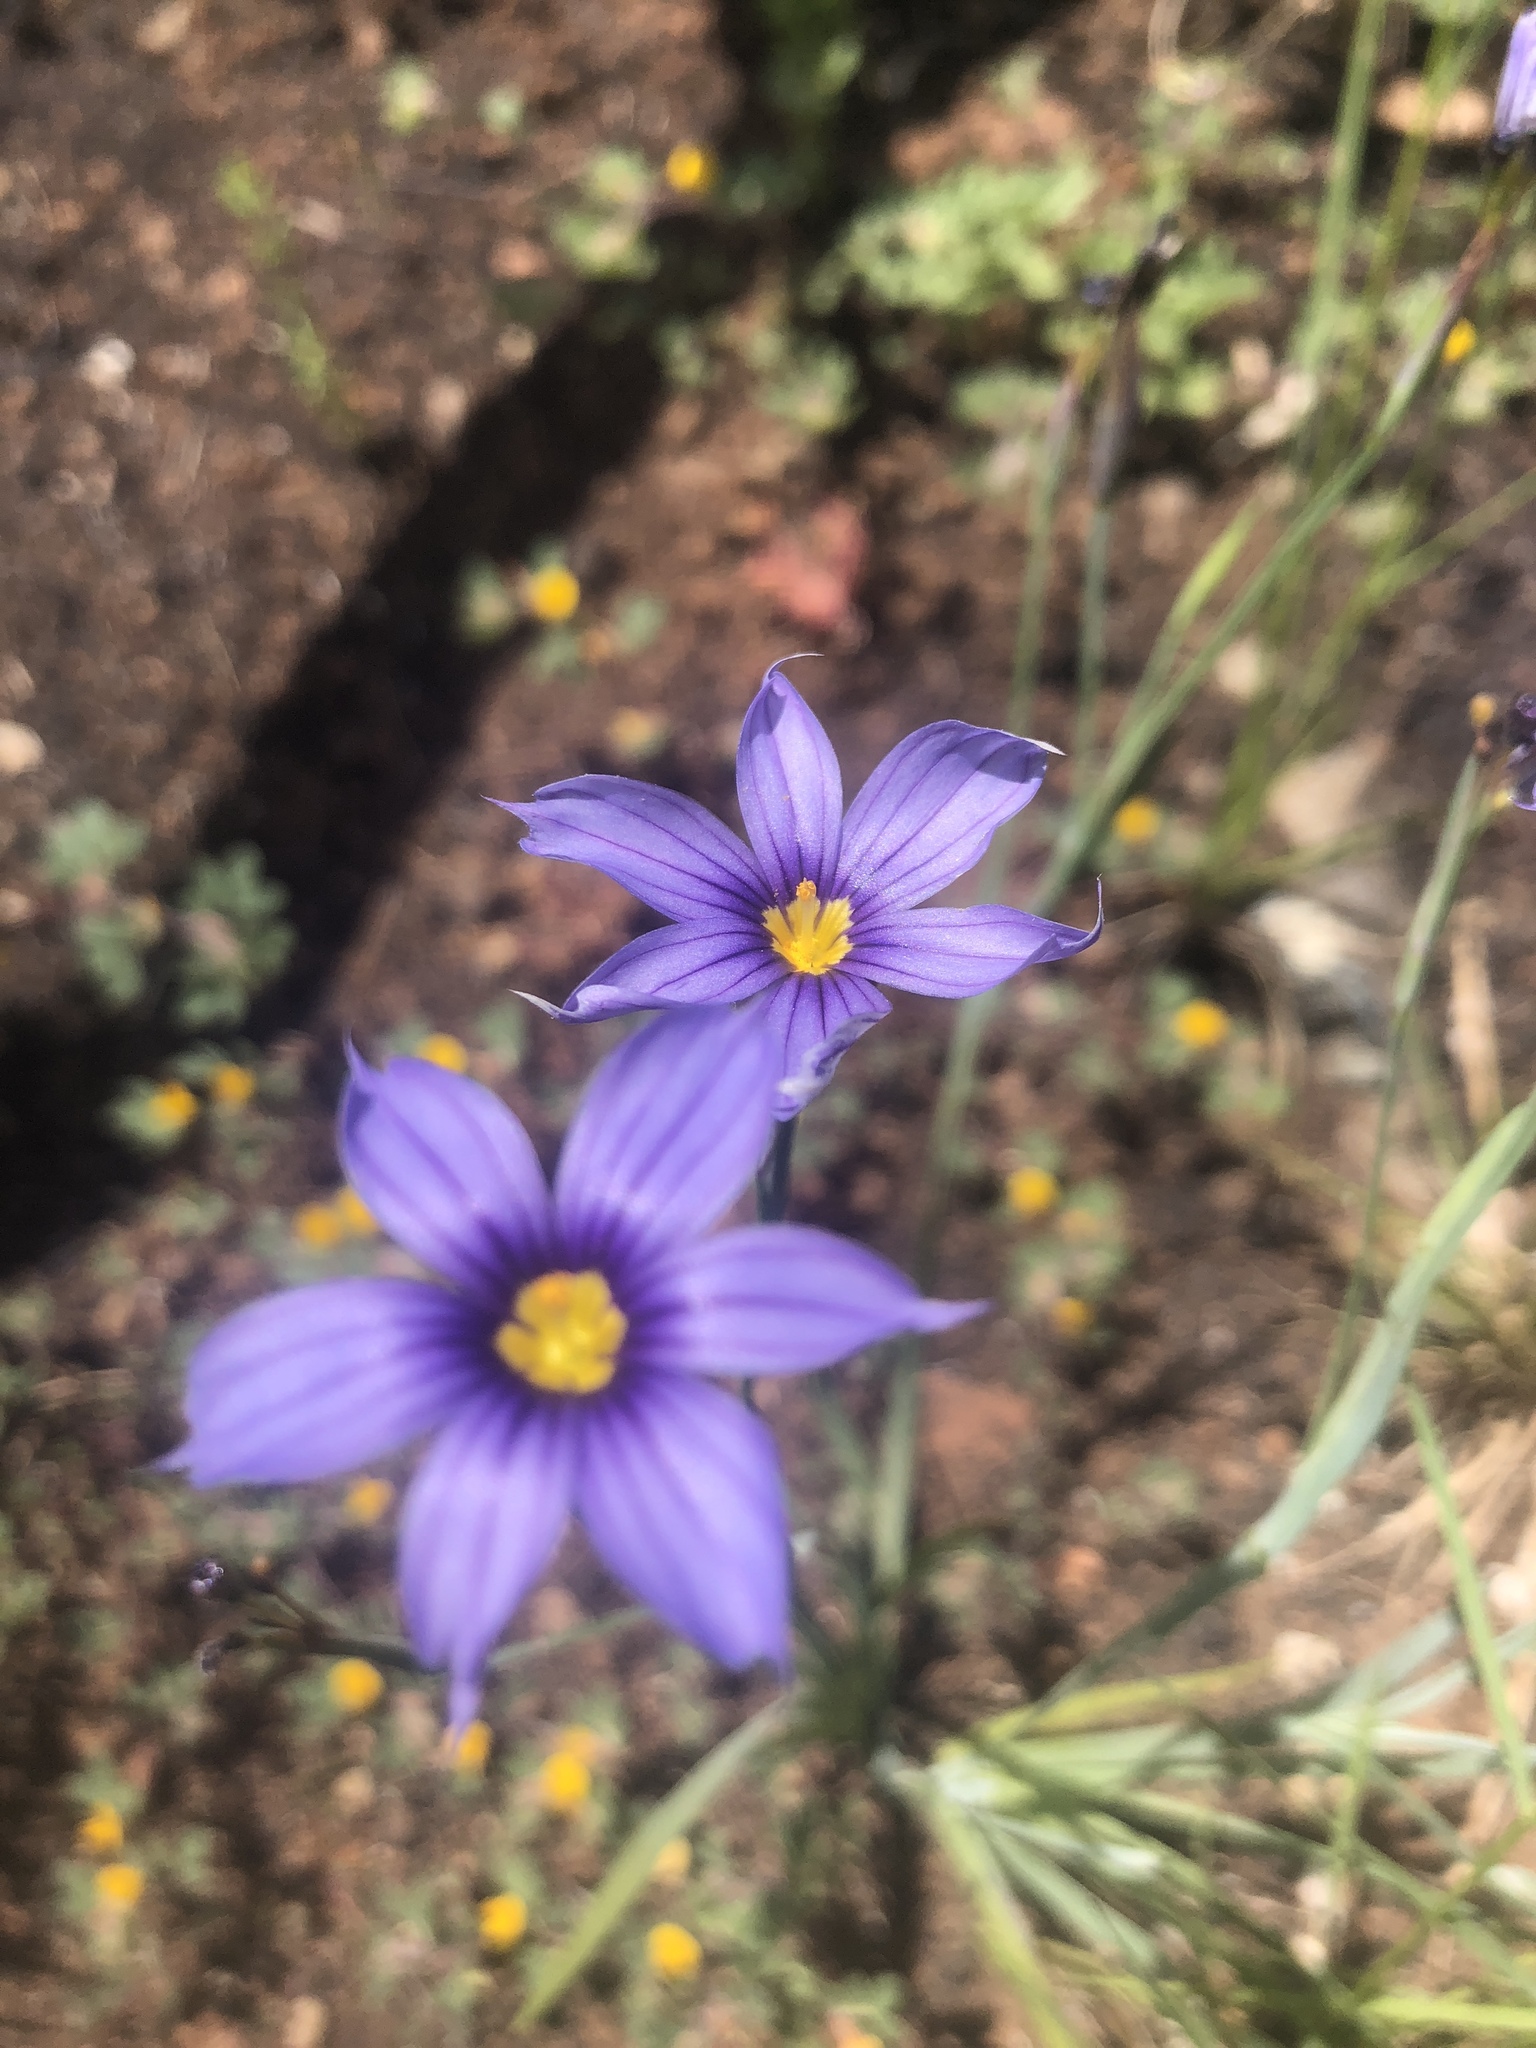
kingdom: Plantae
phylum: Tracheophyta
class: Liliopsida
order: Asparagales
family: Iridaceae
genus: Sisyrinchium
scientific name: Sisyrinchium bellum
